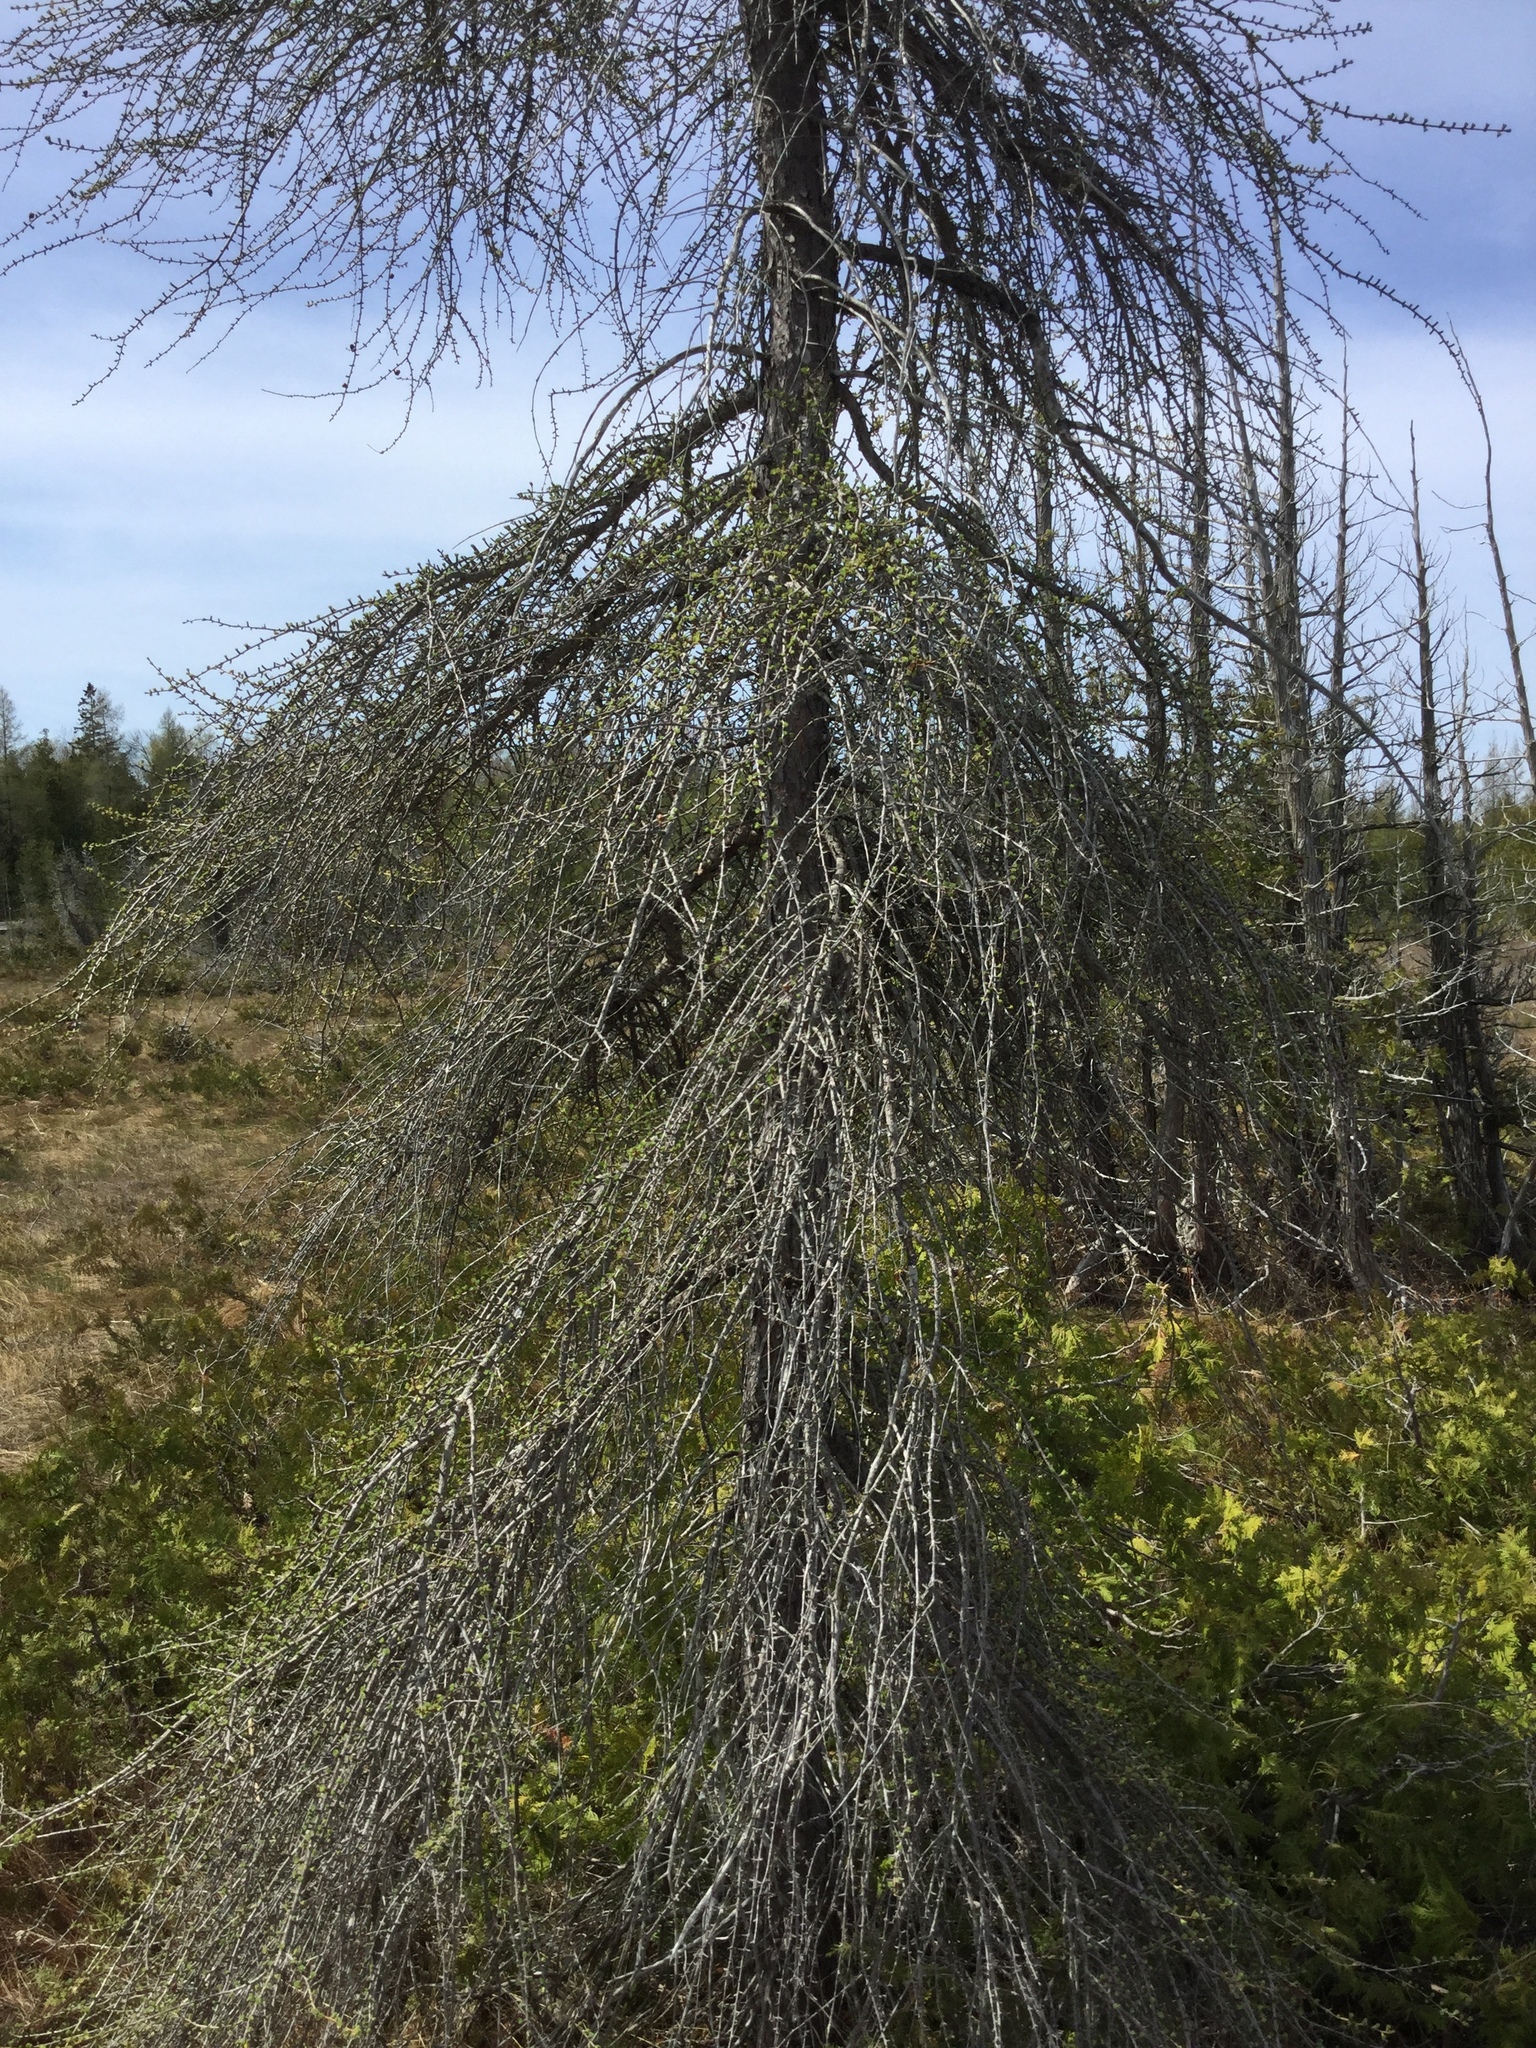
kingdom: Plantae
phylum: Tracheophyta
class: Pinopsida
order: Pinales
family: Pinaceae
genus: Larix
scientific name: Larix laricina
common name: American larch
